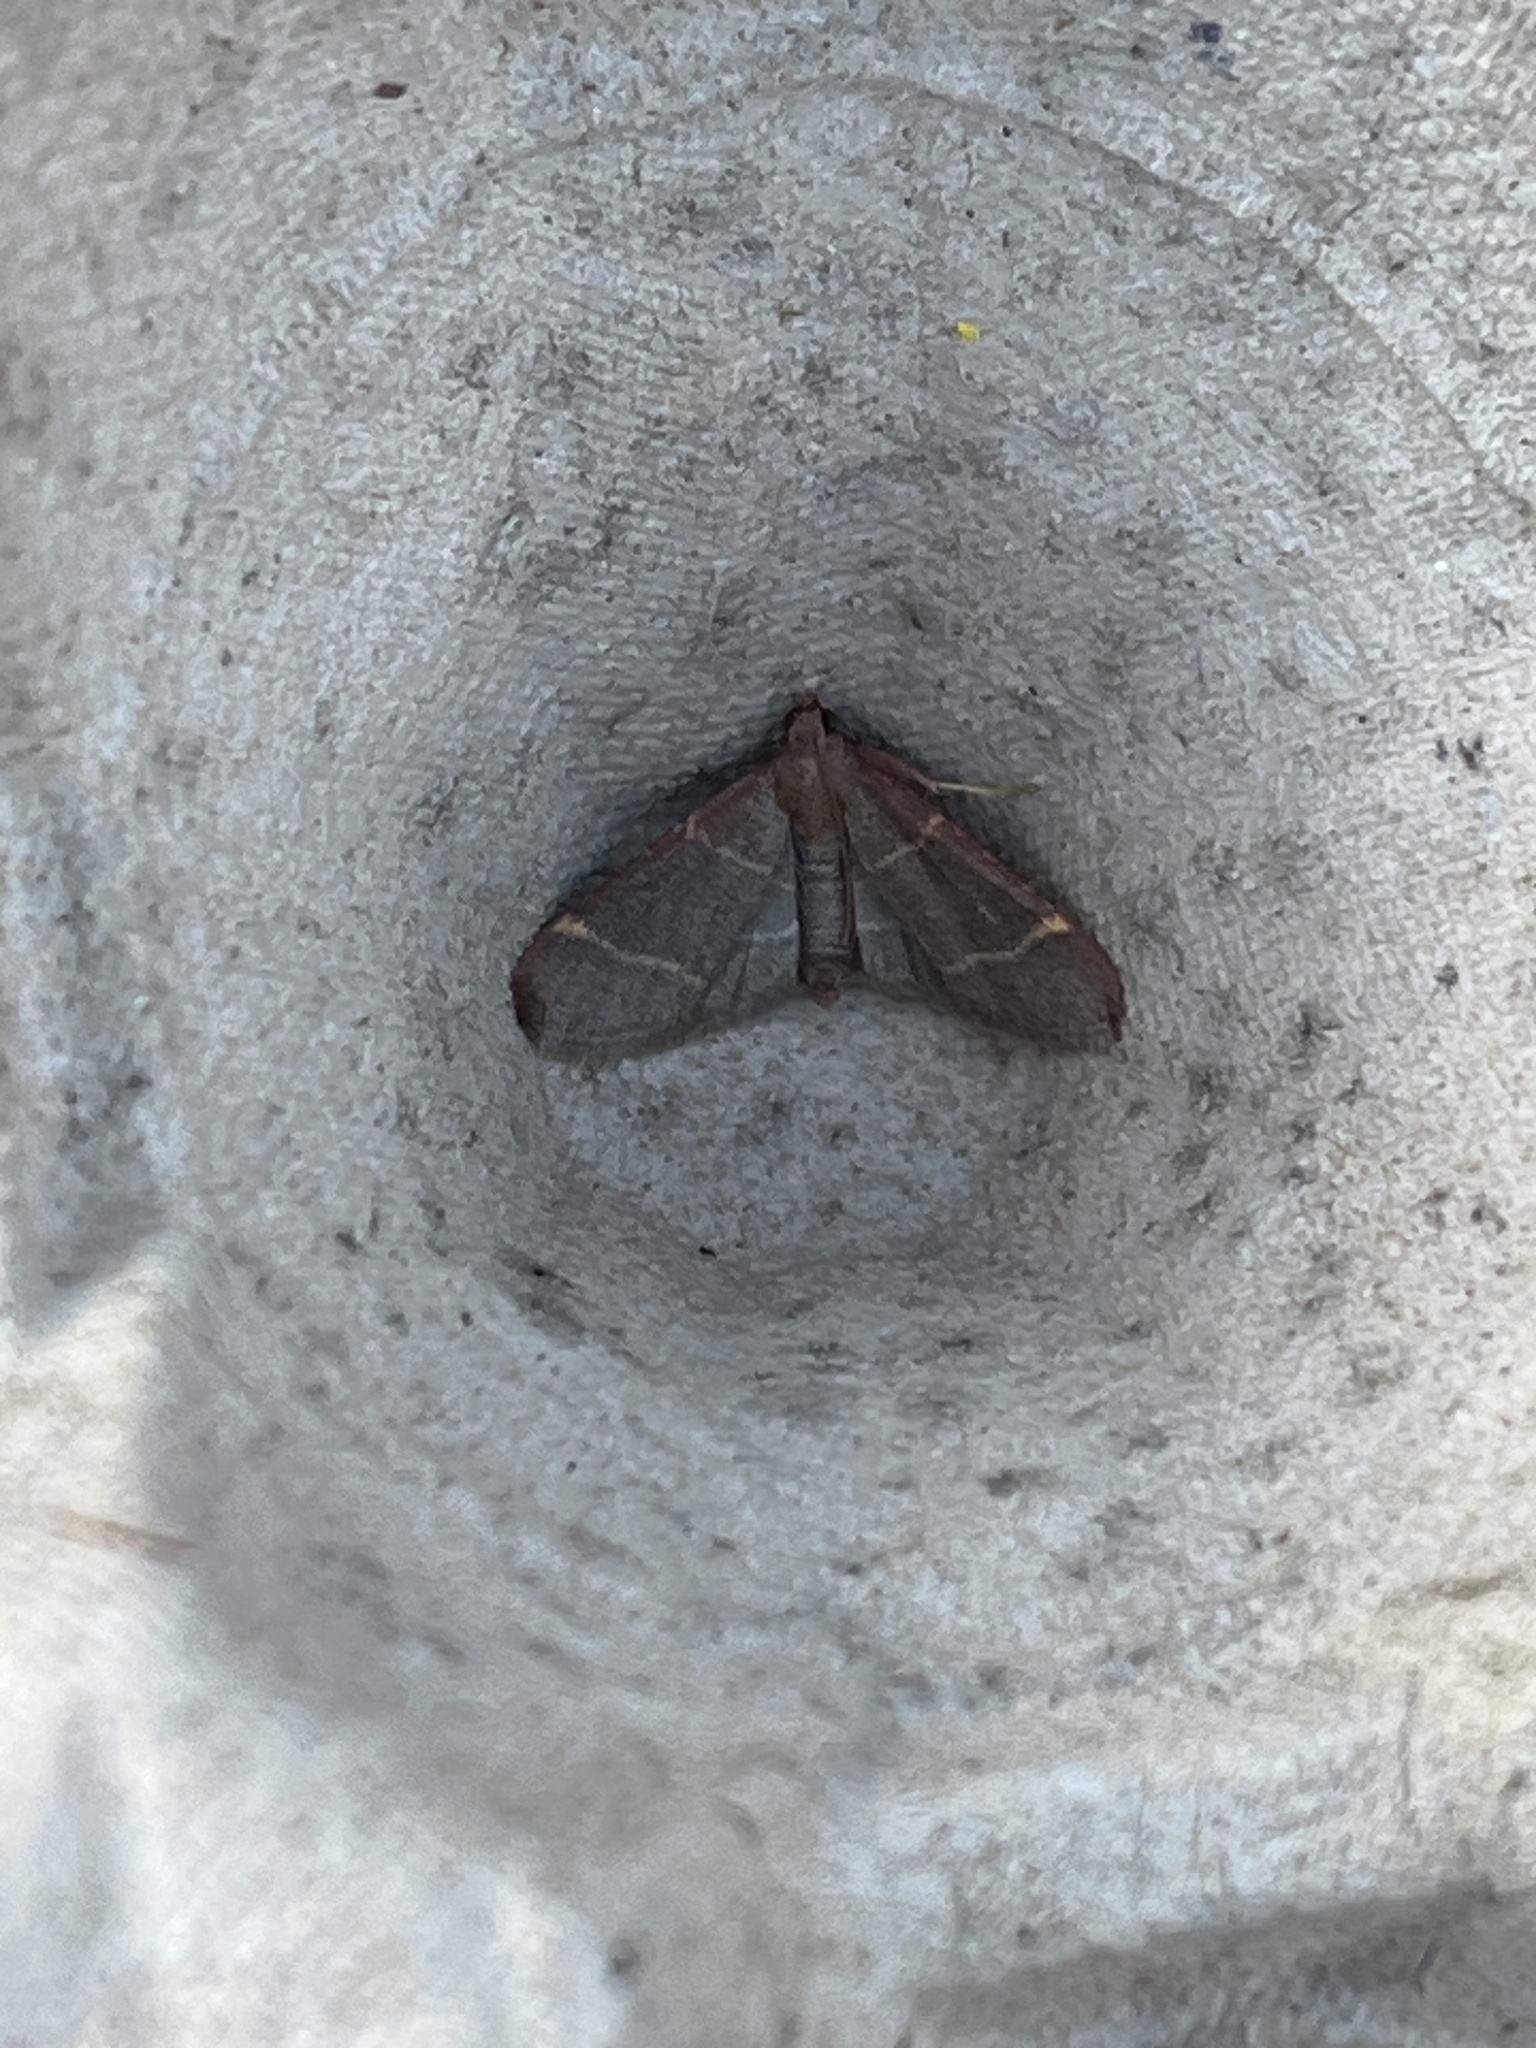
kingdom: Animalia
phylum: Arthropoda
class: Insecta
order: Lepidoptera
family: Pyralidae
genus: Hypsopygia
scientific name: Hypsopygia glaucinalis
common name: Double-striped tabby
